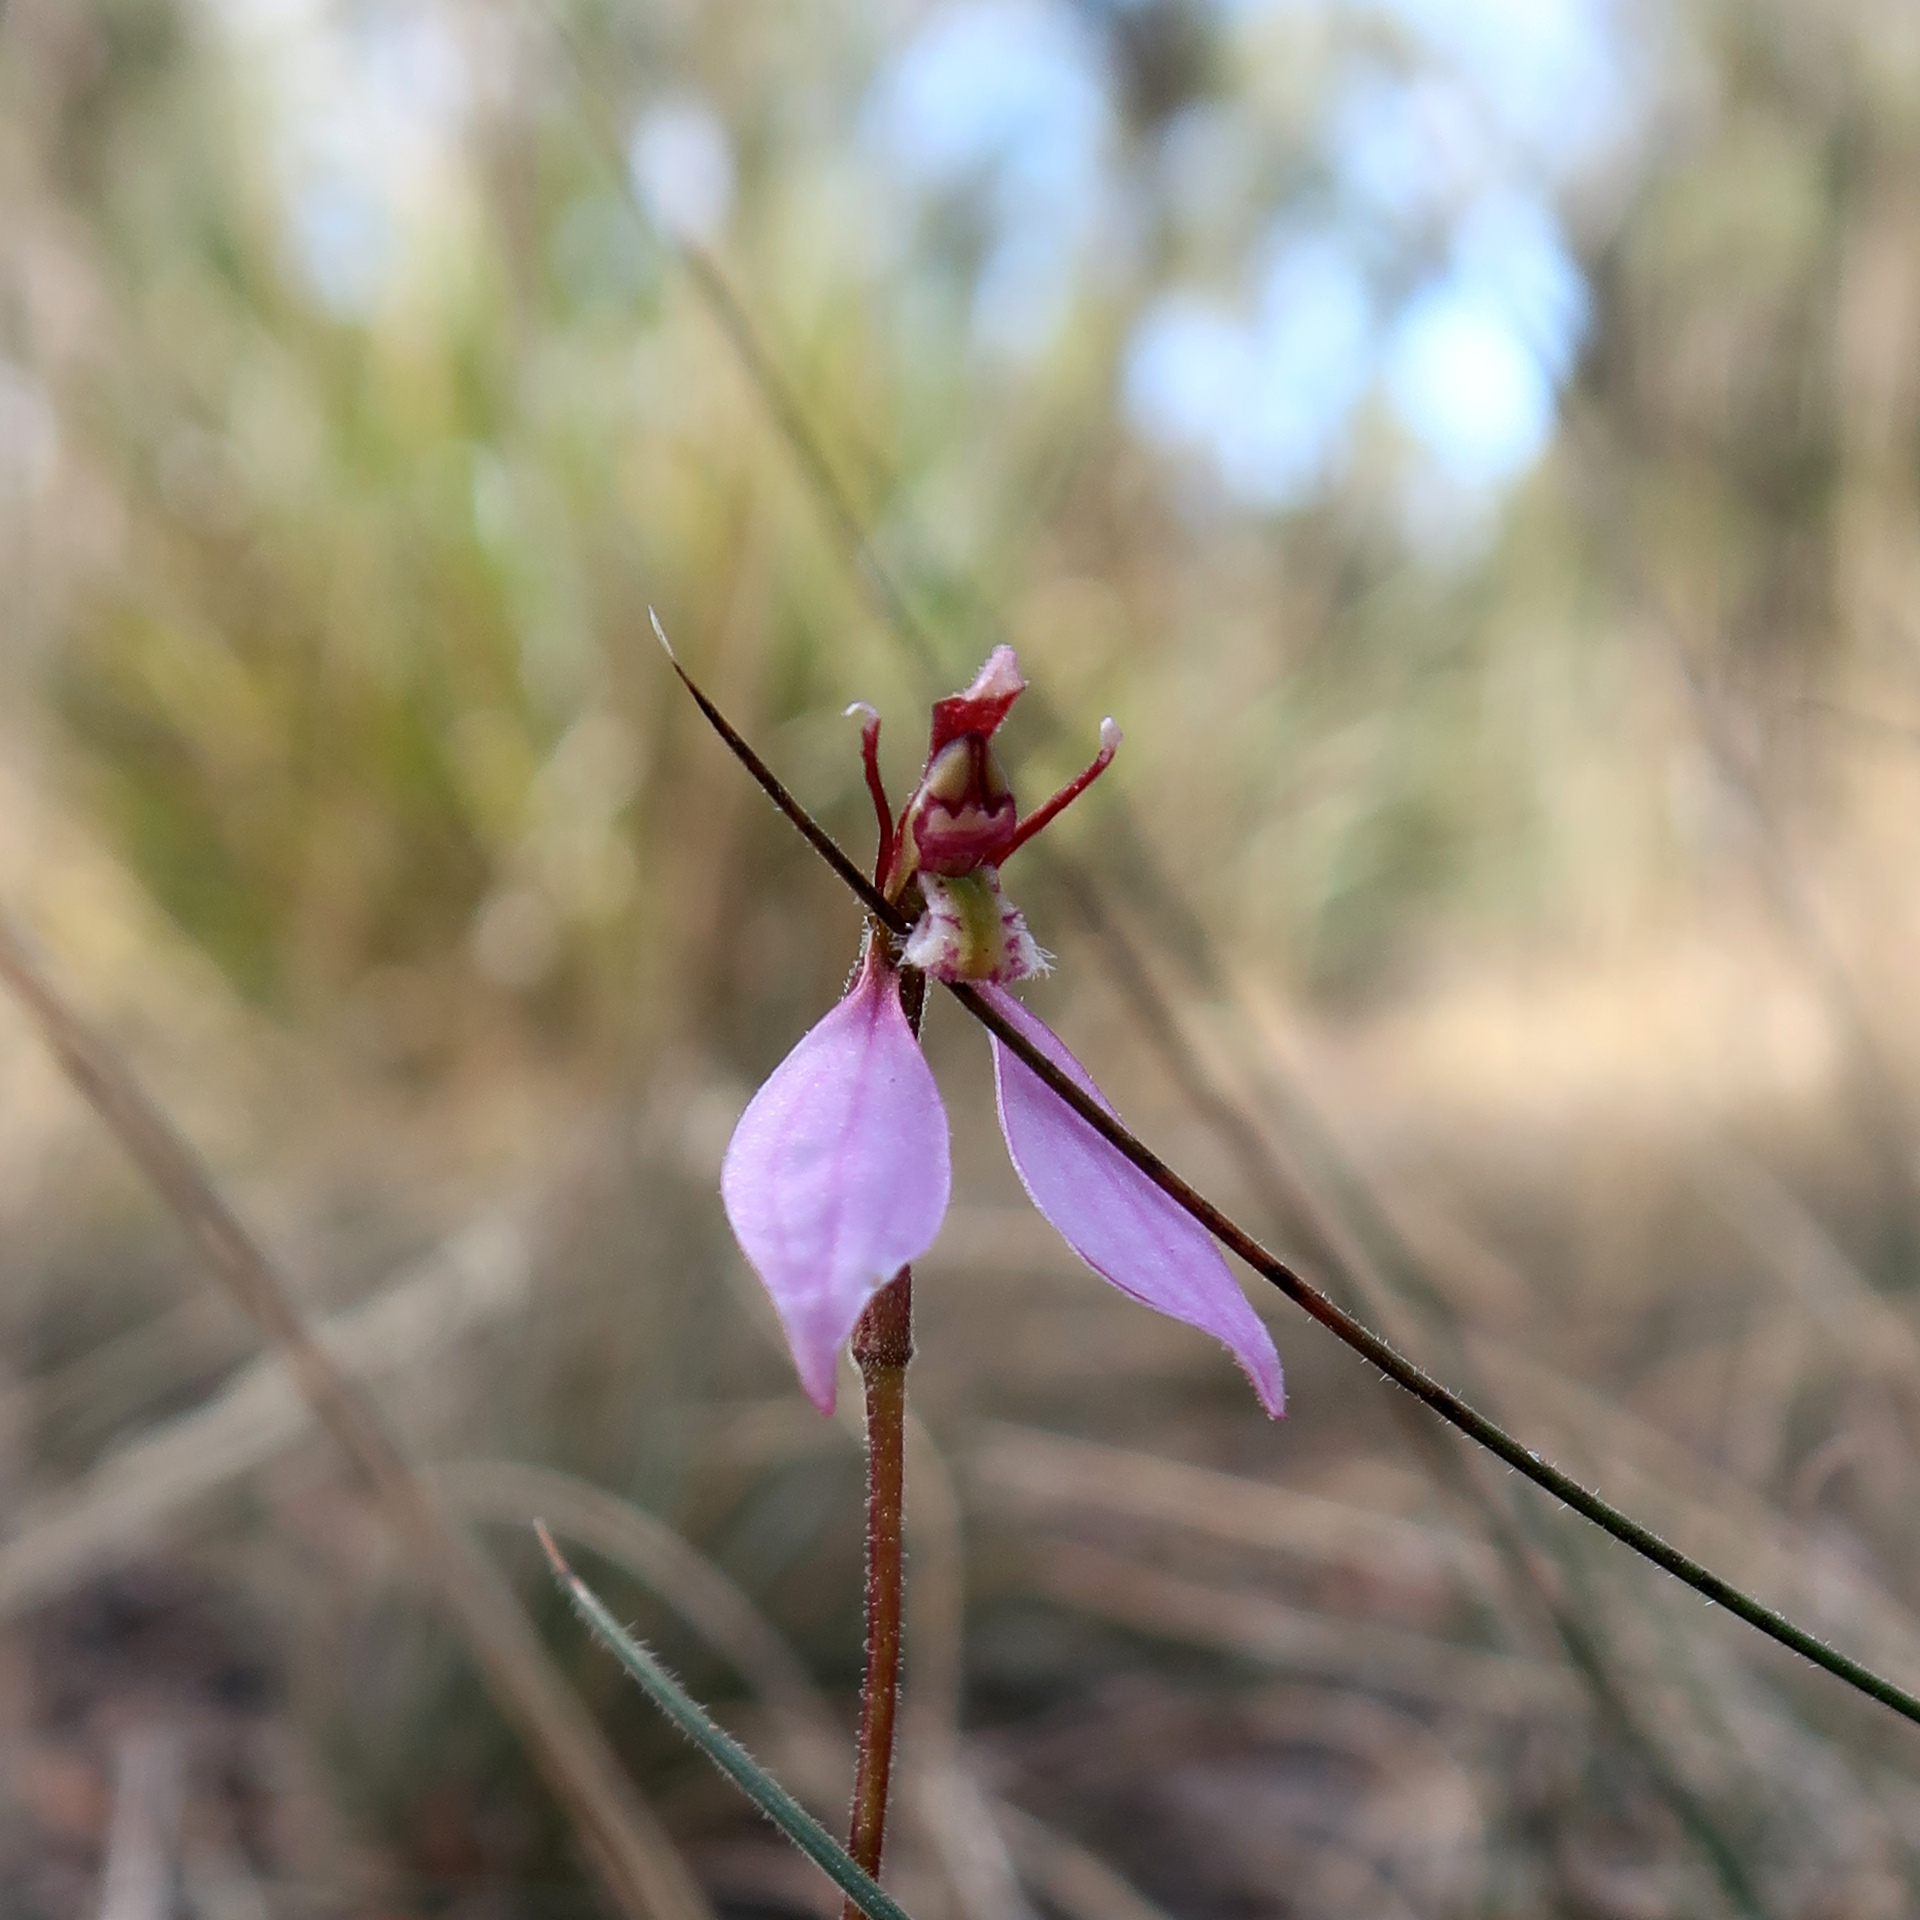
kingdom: Plantae
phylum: Tracheophyta
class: Liliopsida
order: Asparagales
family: Orchidaceae
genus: Eriochilus
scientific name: Eriochilus cucullatus
